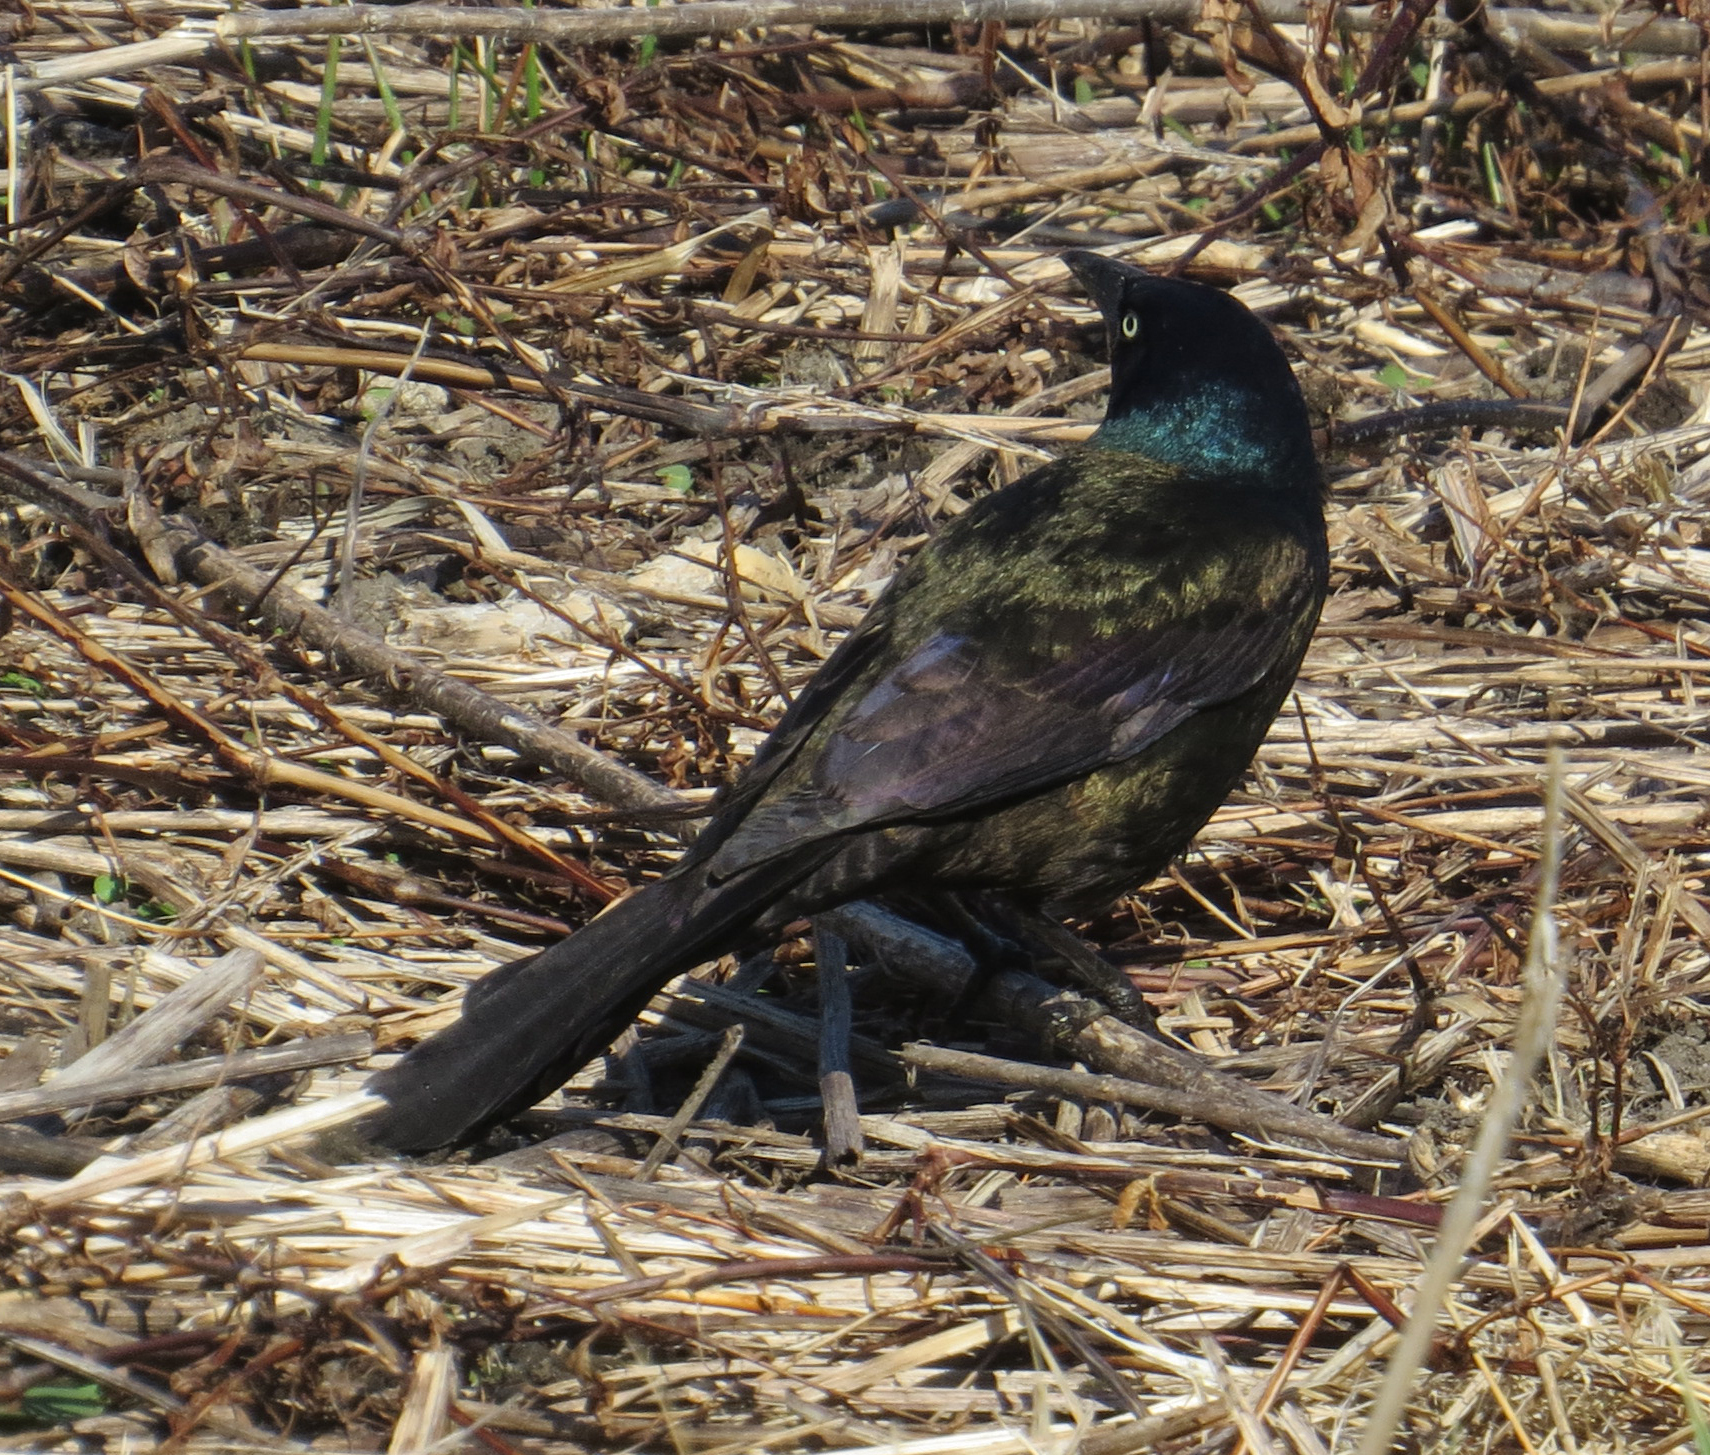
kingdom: Animalia
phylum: Chordata
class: Aves
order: Passeriformes
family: Icteridae
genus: Quiscalus
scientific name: Quiscalus quiscula
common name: Common grackle
